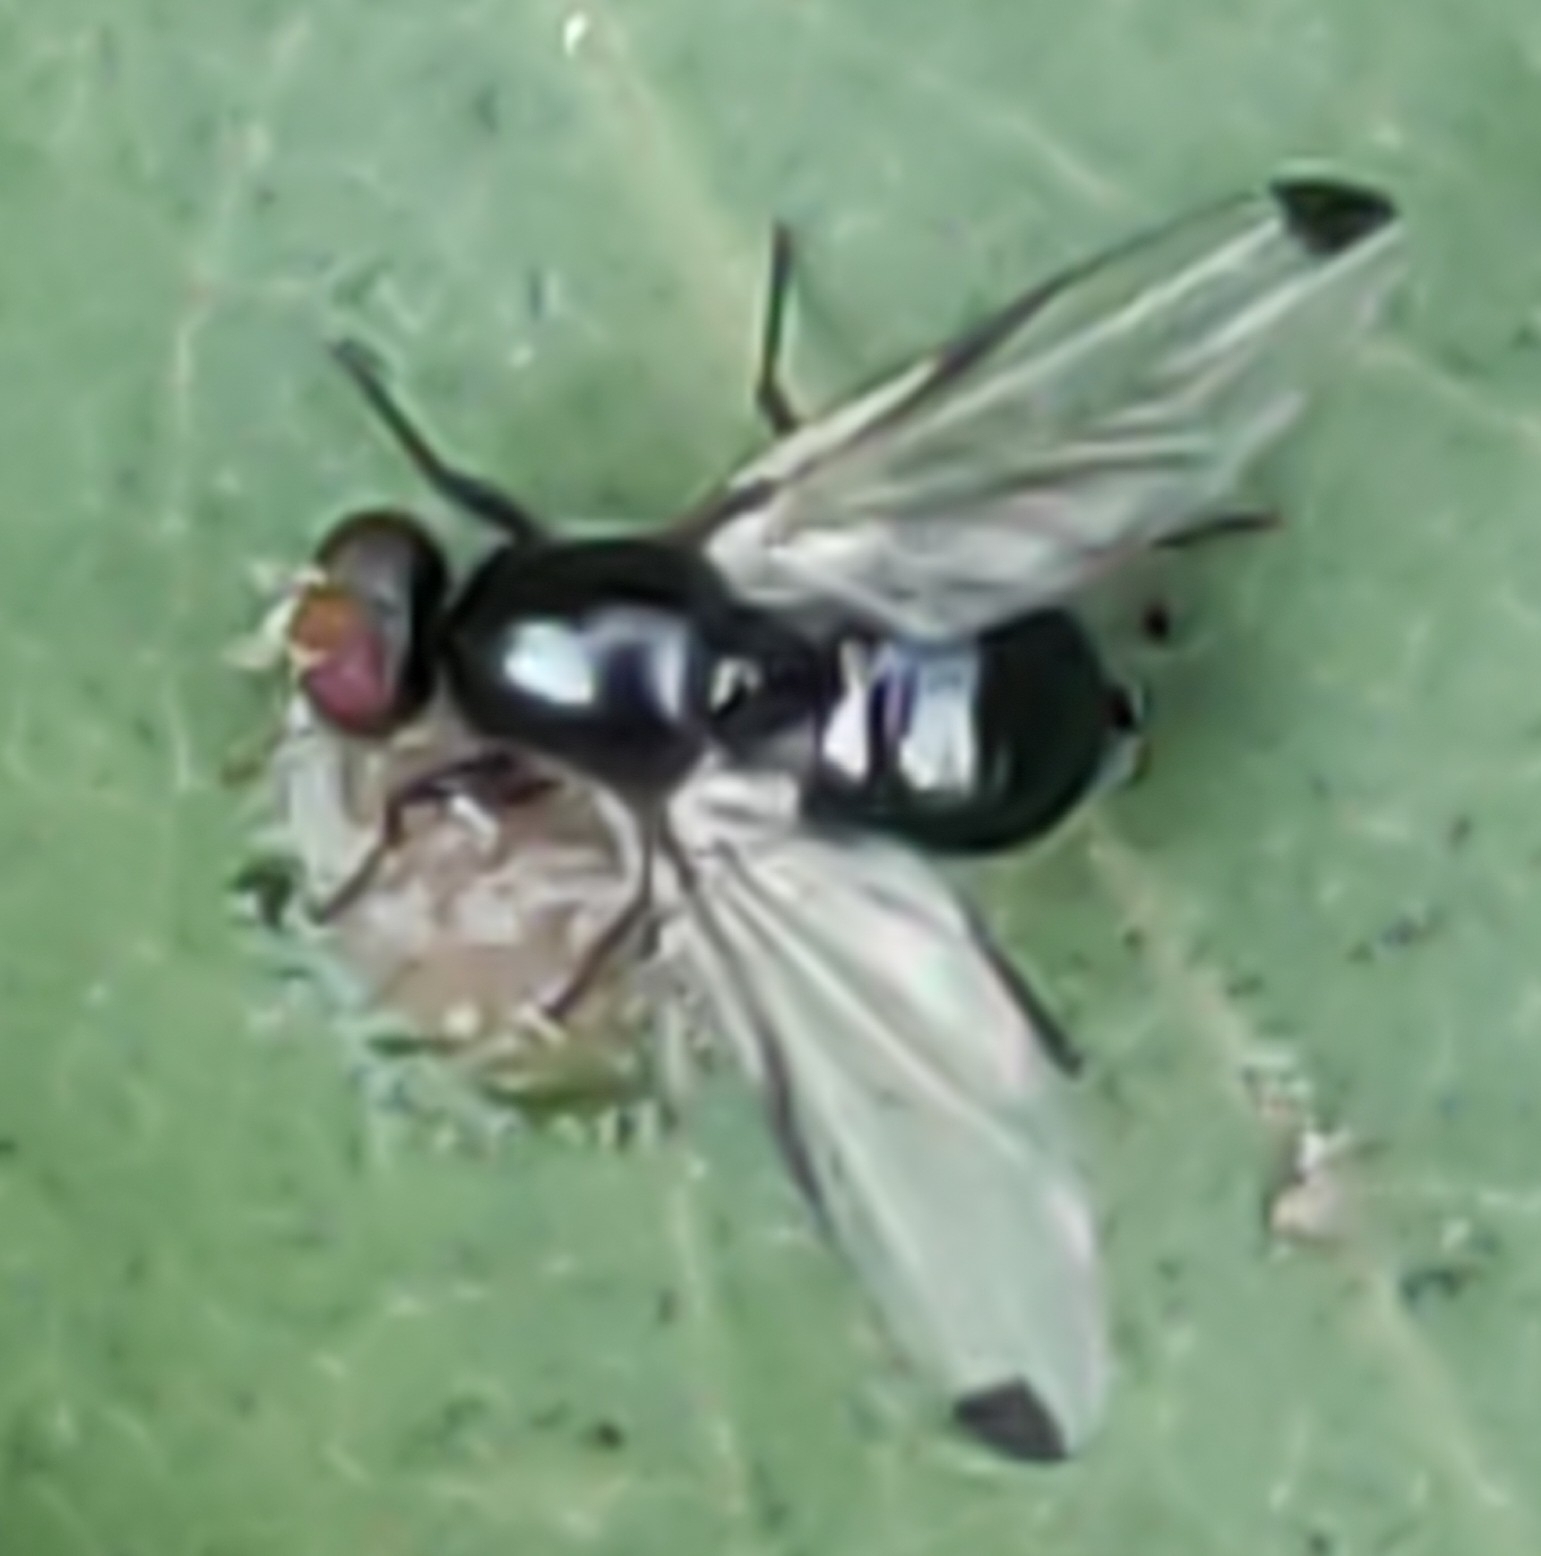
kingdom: Animalia
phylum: Arthropoda
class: Insecta
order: Diptera
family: Ulidiidae
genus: Seioptera
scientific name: Seioptera vibrans
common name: Dark-tipped wingwaver
